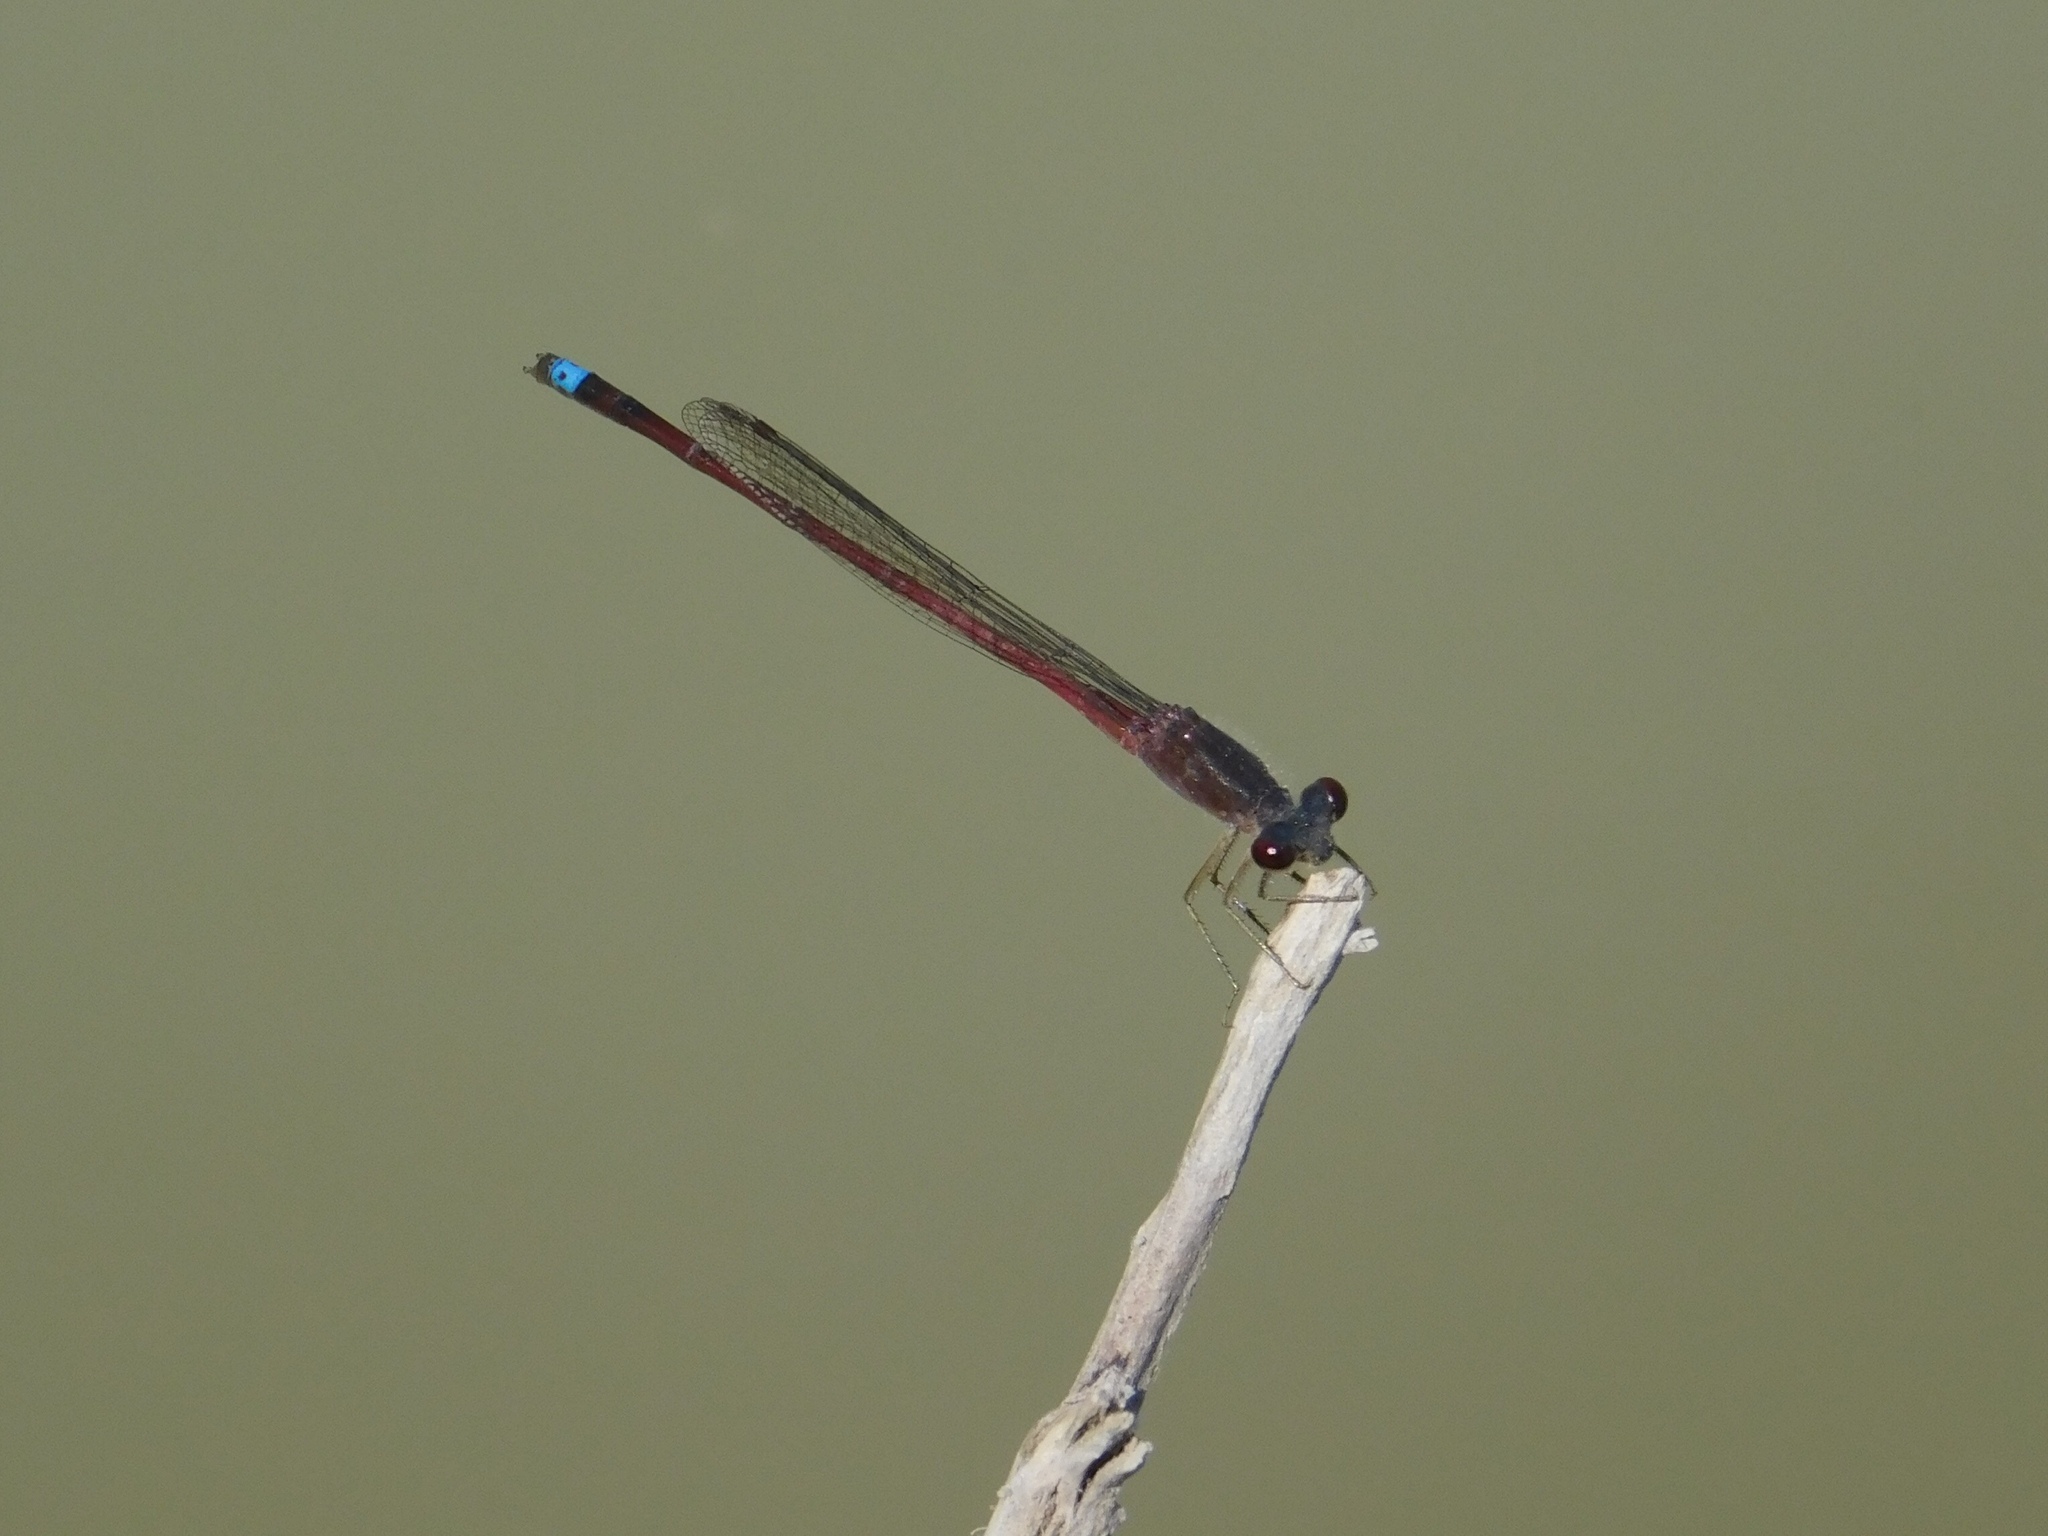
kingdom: Animalia
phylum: Arthropoda
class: Insecta
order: Odonata
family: Coenagrionidae
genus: Oxyagrion
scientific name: Oxyagrion rubidum
